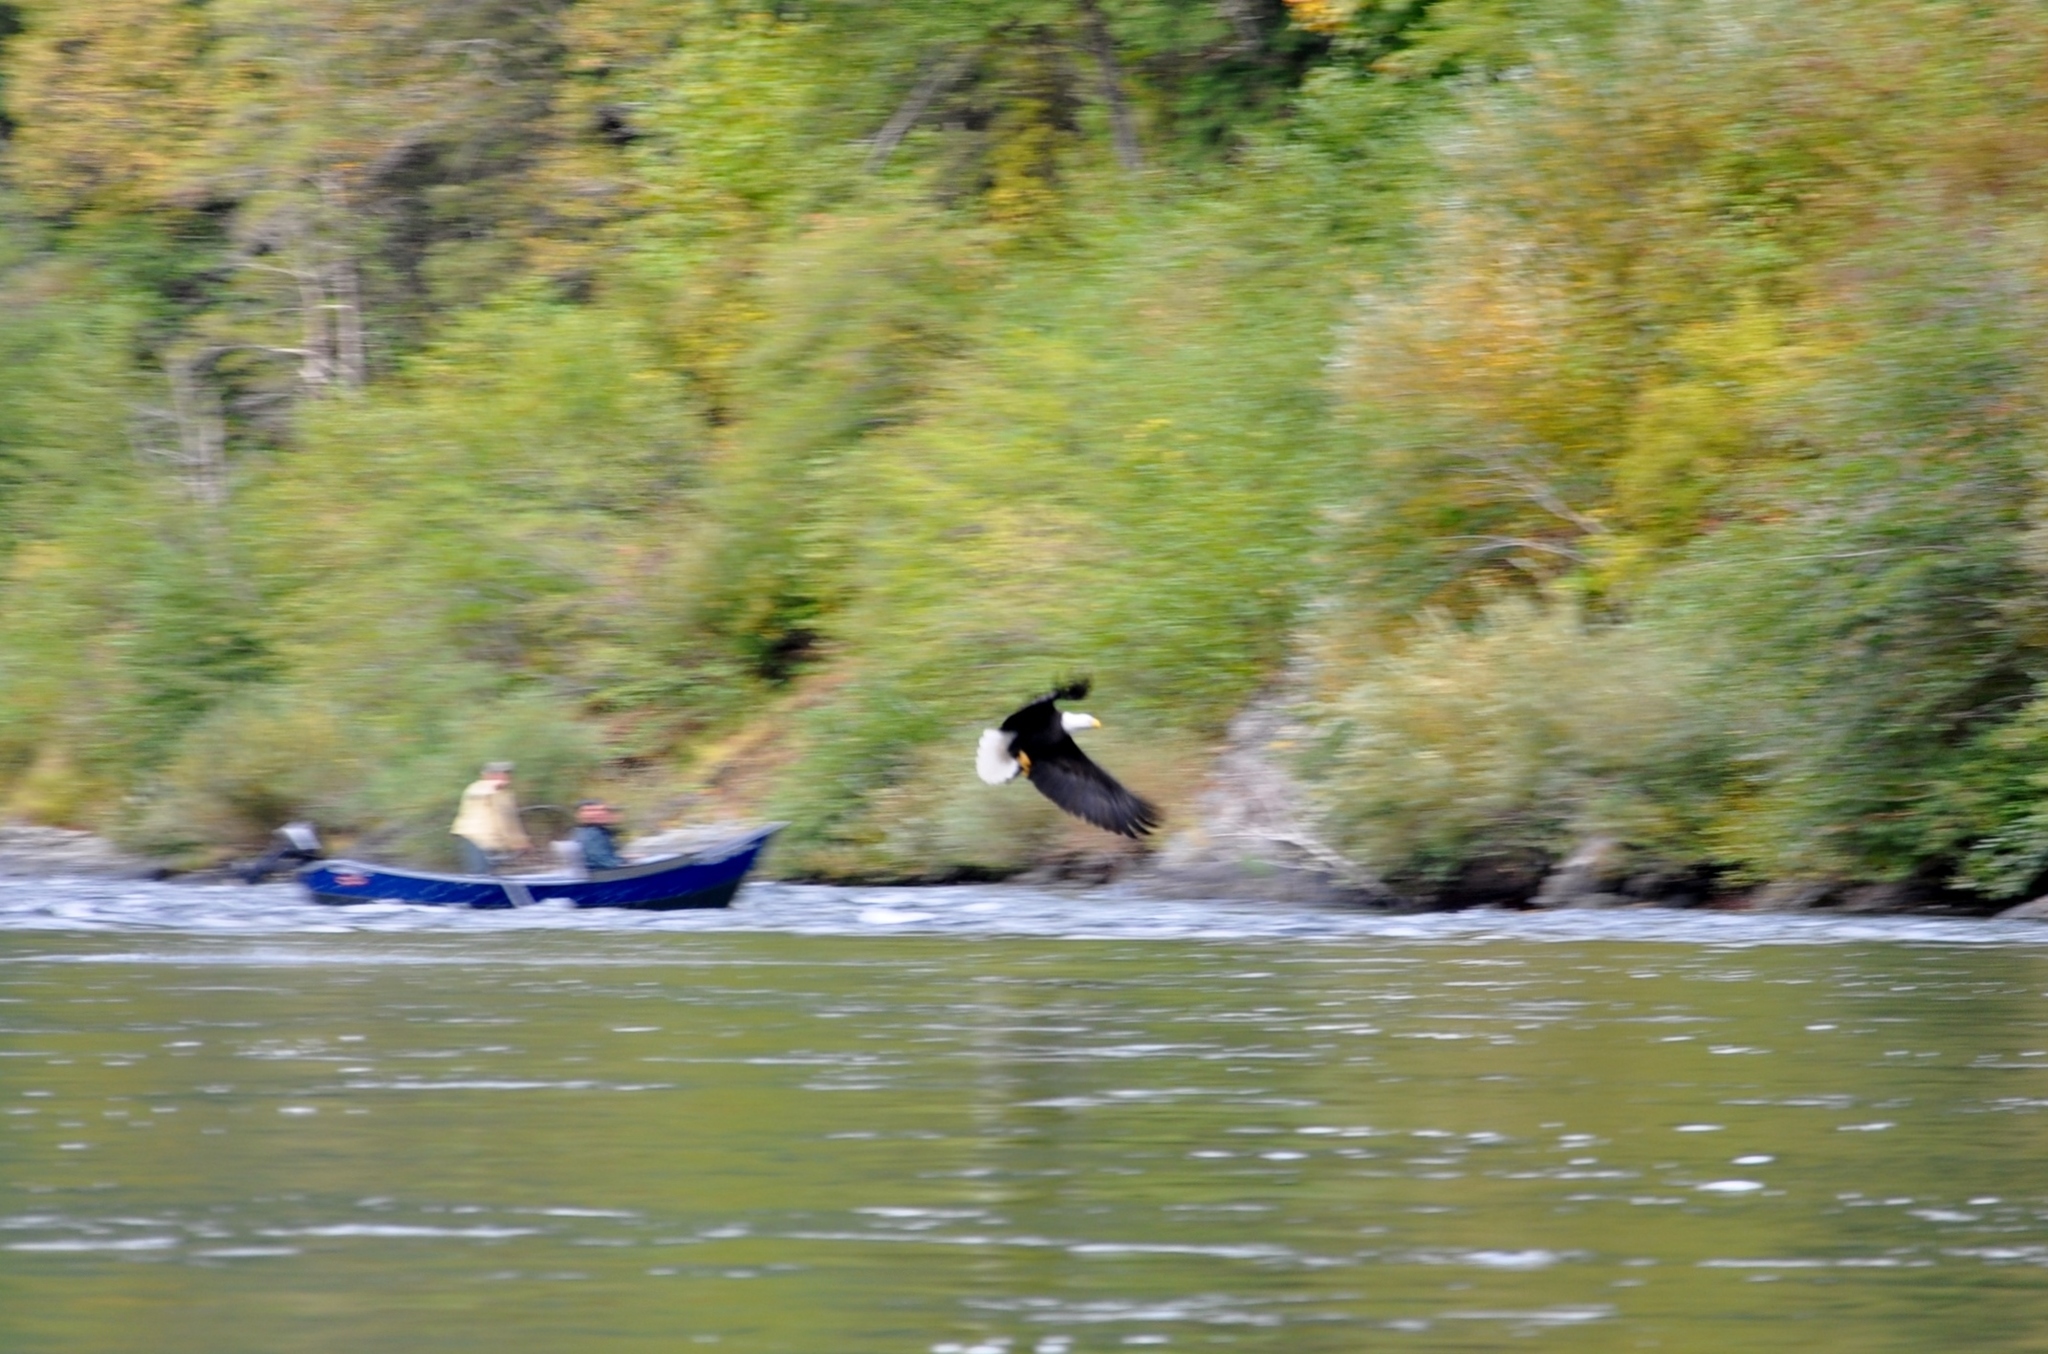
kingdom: Animalia
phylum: Chordata
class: Aves
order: Accipitriformes
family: Accipitridae
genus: Haliaeetus
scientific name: Haliaeetus leucocephalus
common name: Bald eagle
